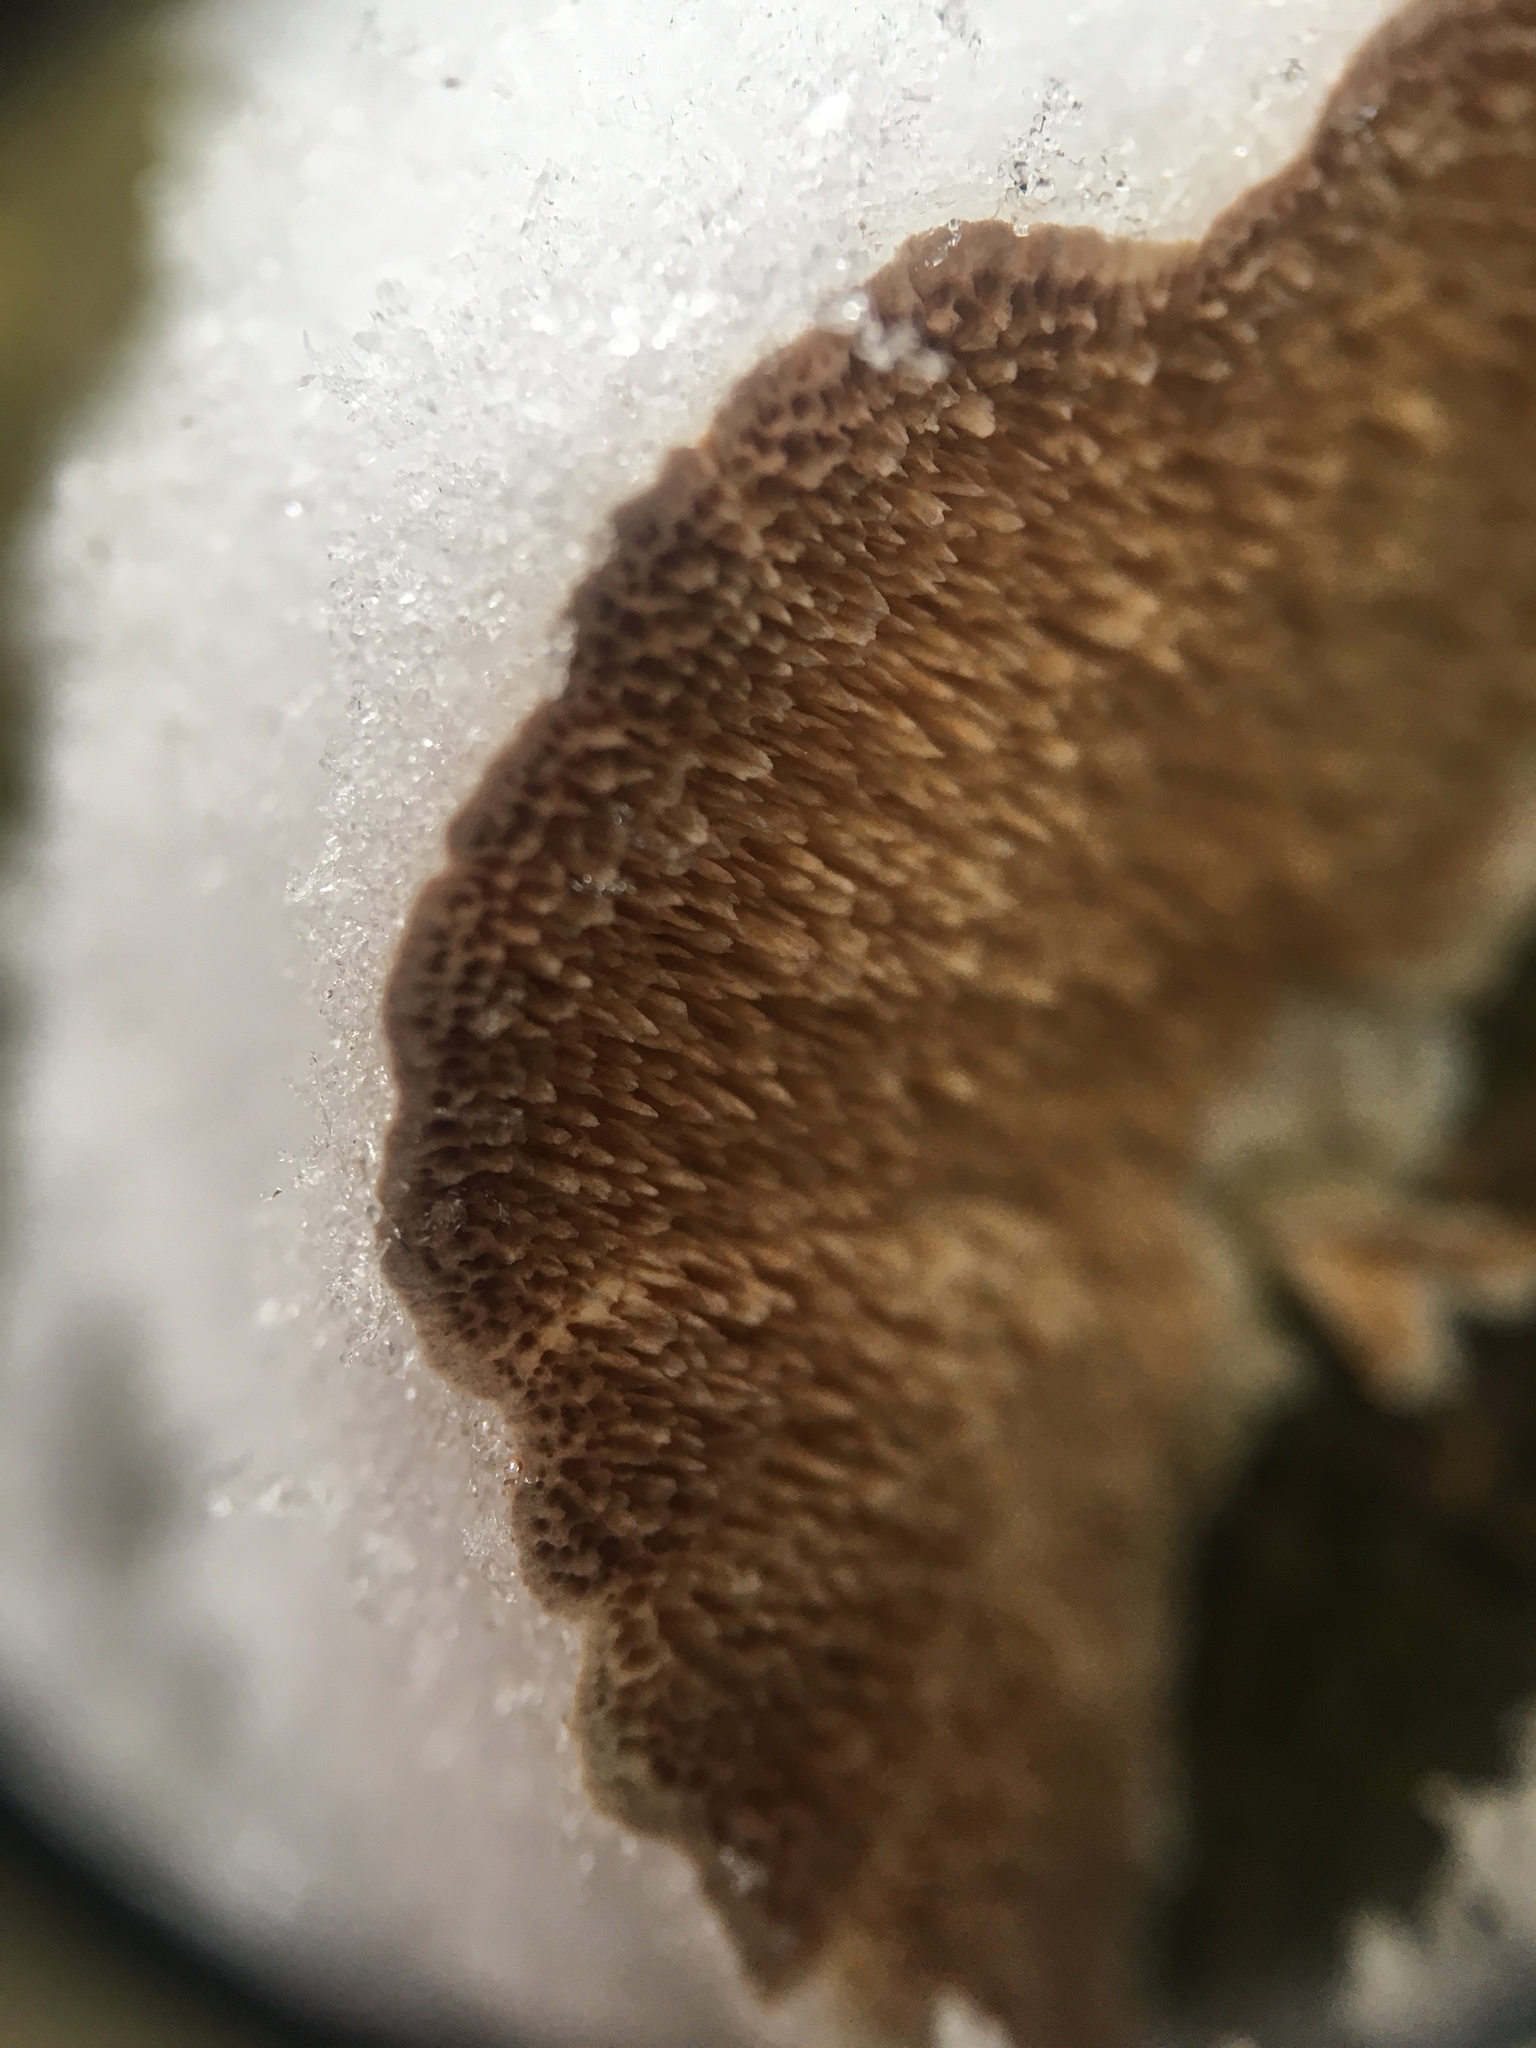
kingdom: Fungi
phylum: Basidiomycota
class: Agaricomycetes
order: Hymenochaetales
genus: Trichaptum
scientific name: Trichaptum biforme
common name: Violet-toothed polypore
